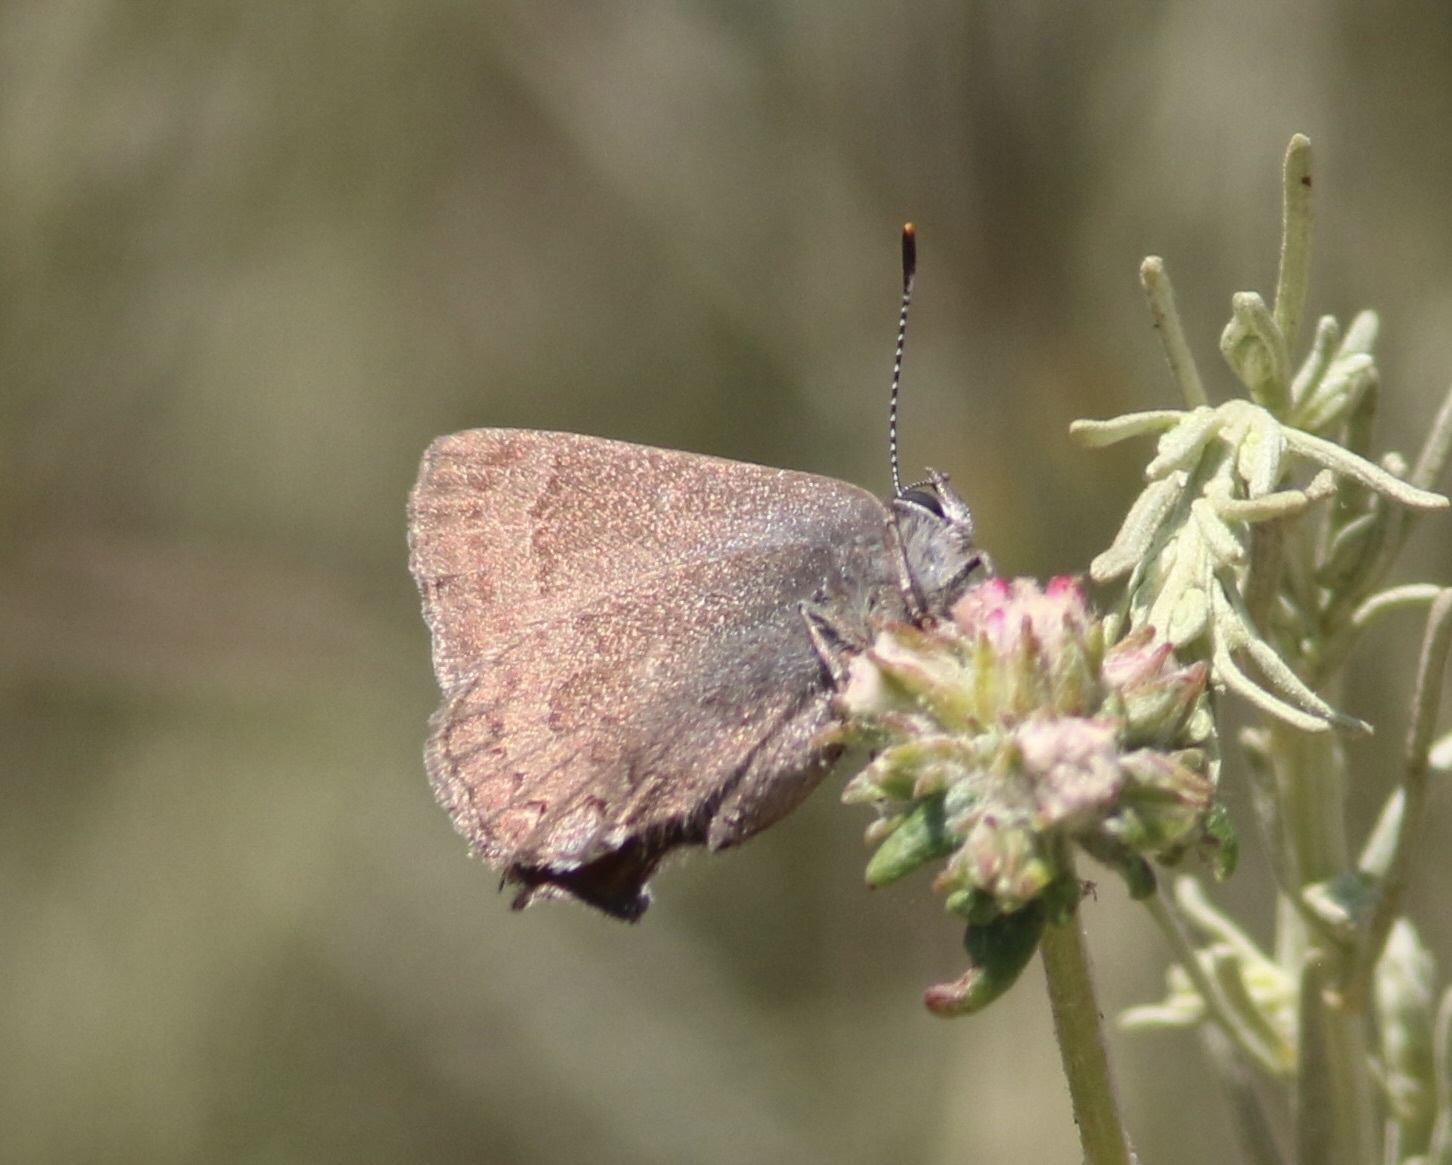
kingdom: Animalia
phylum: Arthropoda
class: Insecta
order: Lepidoptera
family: Lycaenidae
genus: Strymon
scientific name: Strymon saepium
